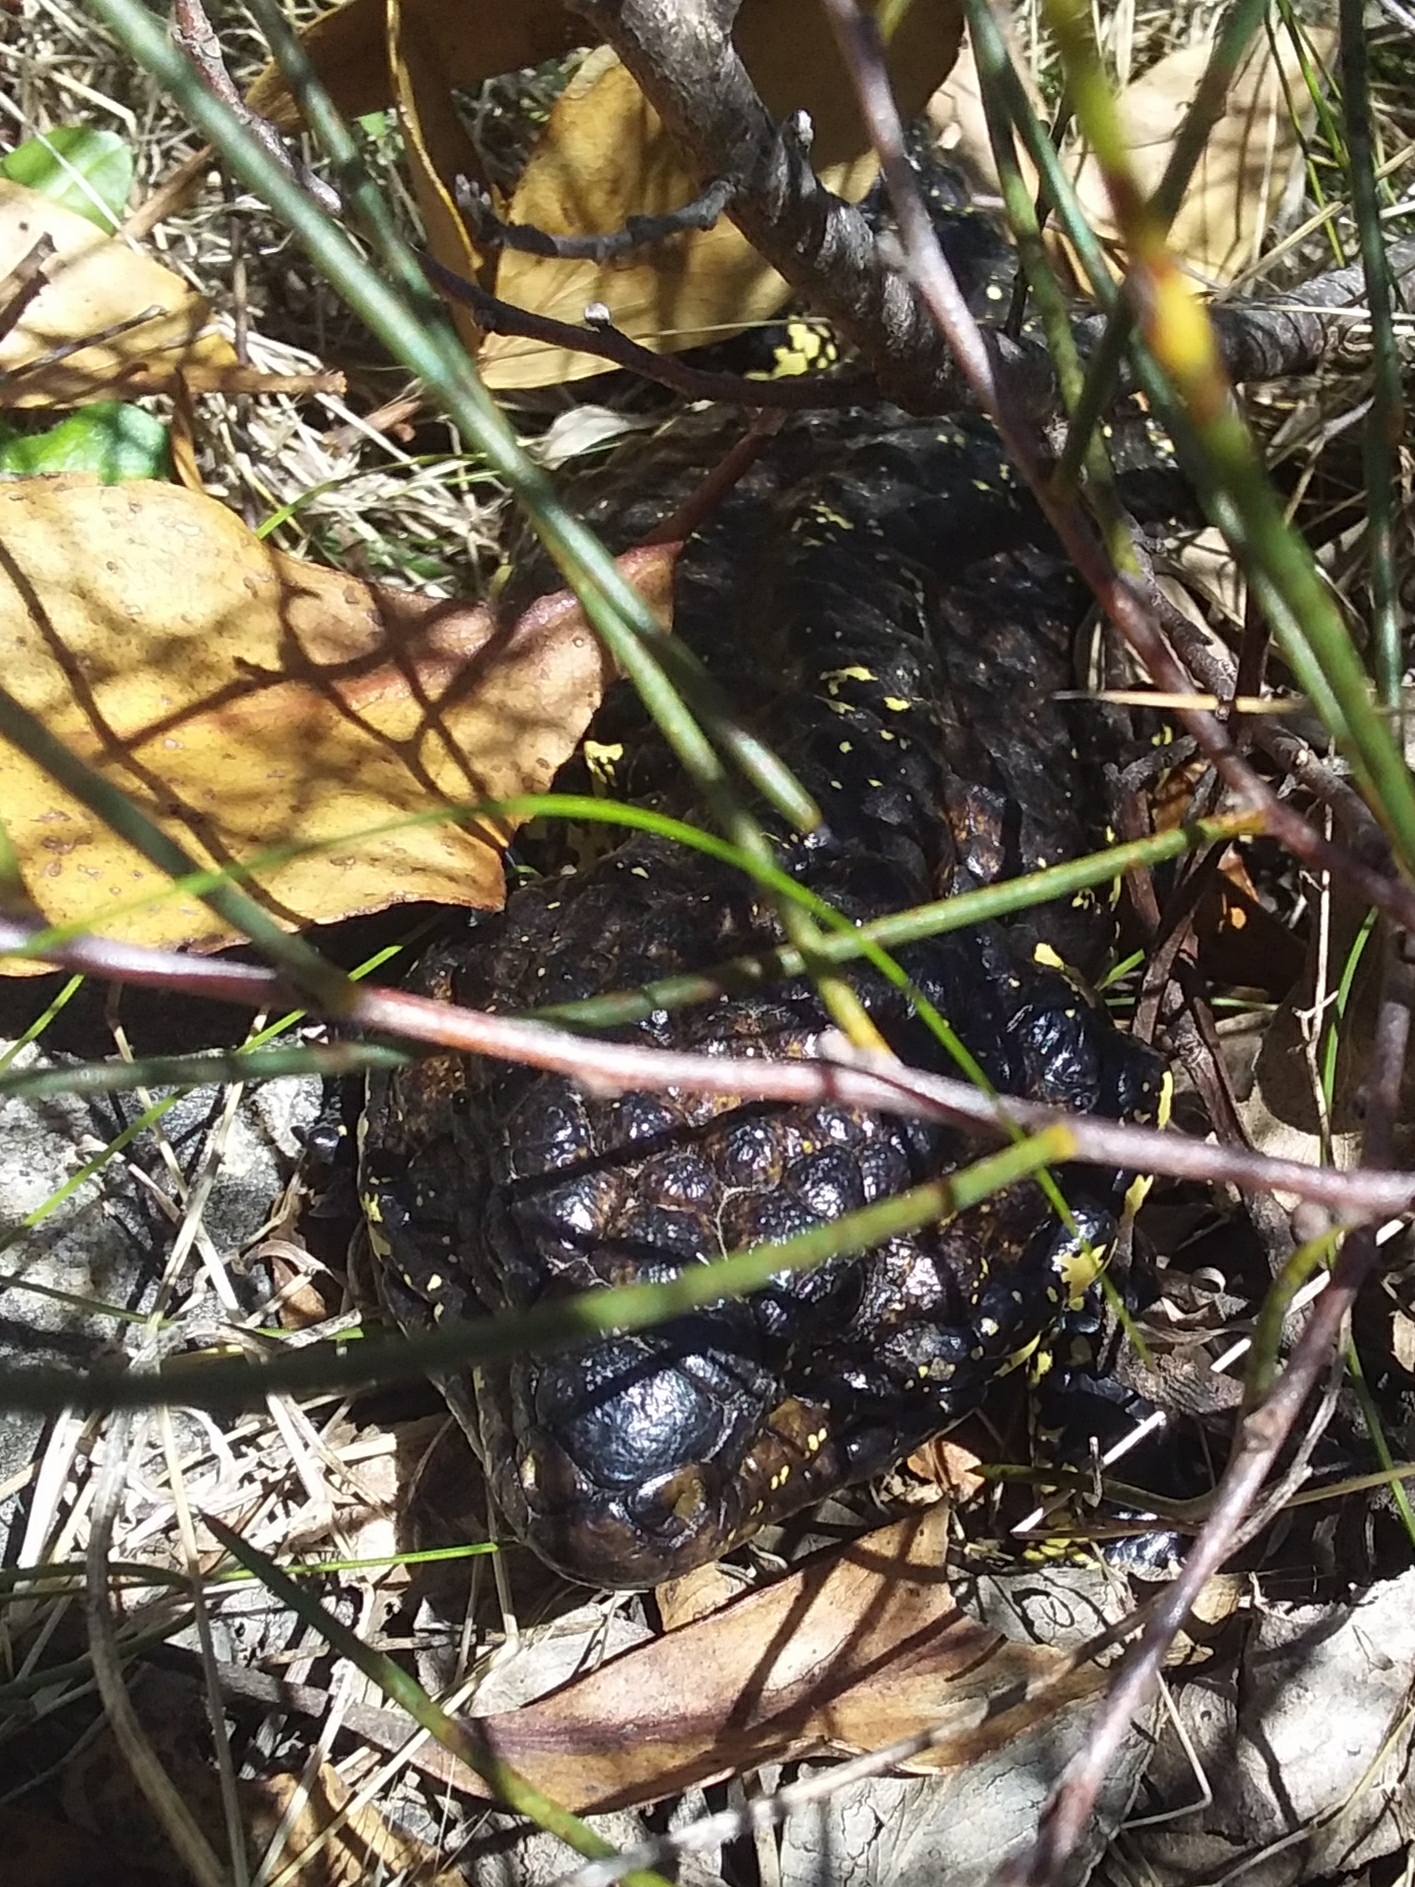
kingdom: Animalia
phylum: Chordata
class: Squamata
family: Scincidae
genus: Tiliqua
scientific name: Tiliqua rugosa
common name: Pinecone lizard
